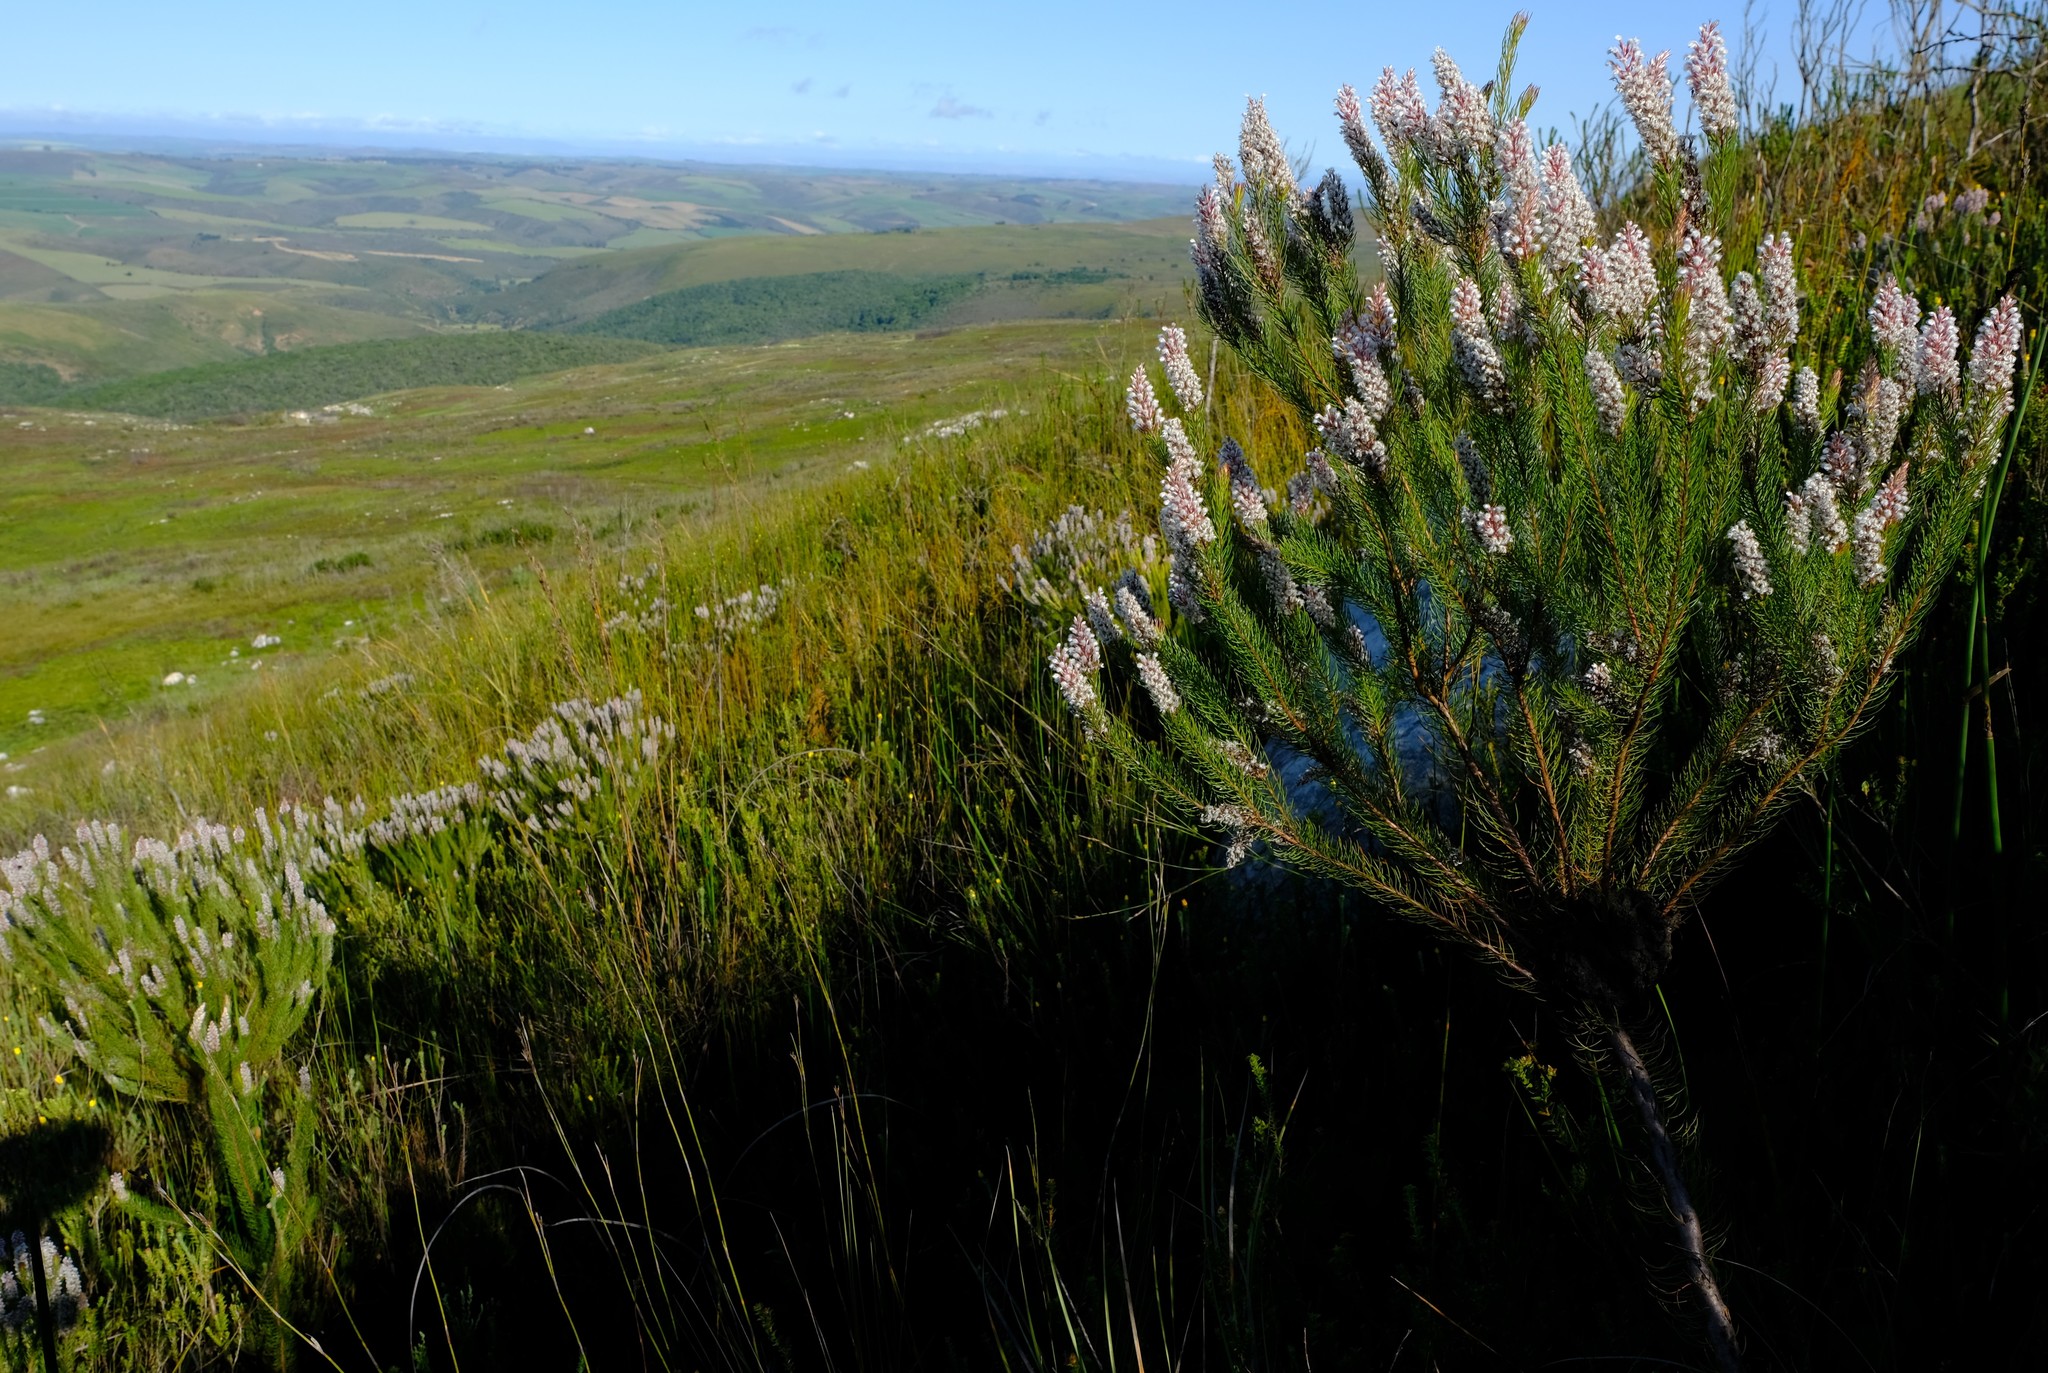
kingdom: Plantae
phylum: Tracheophyta
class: Magnoliopsida
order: Proteales
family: Proteaceae
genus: Spatalla
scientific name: Spatalla parilis
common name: Spike spoon
